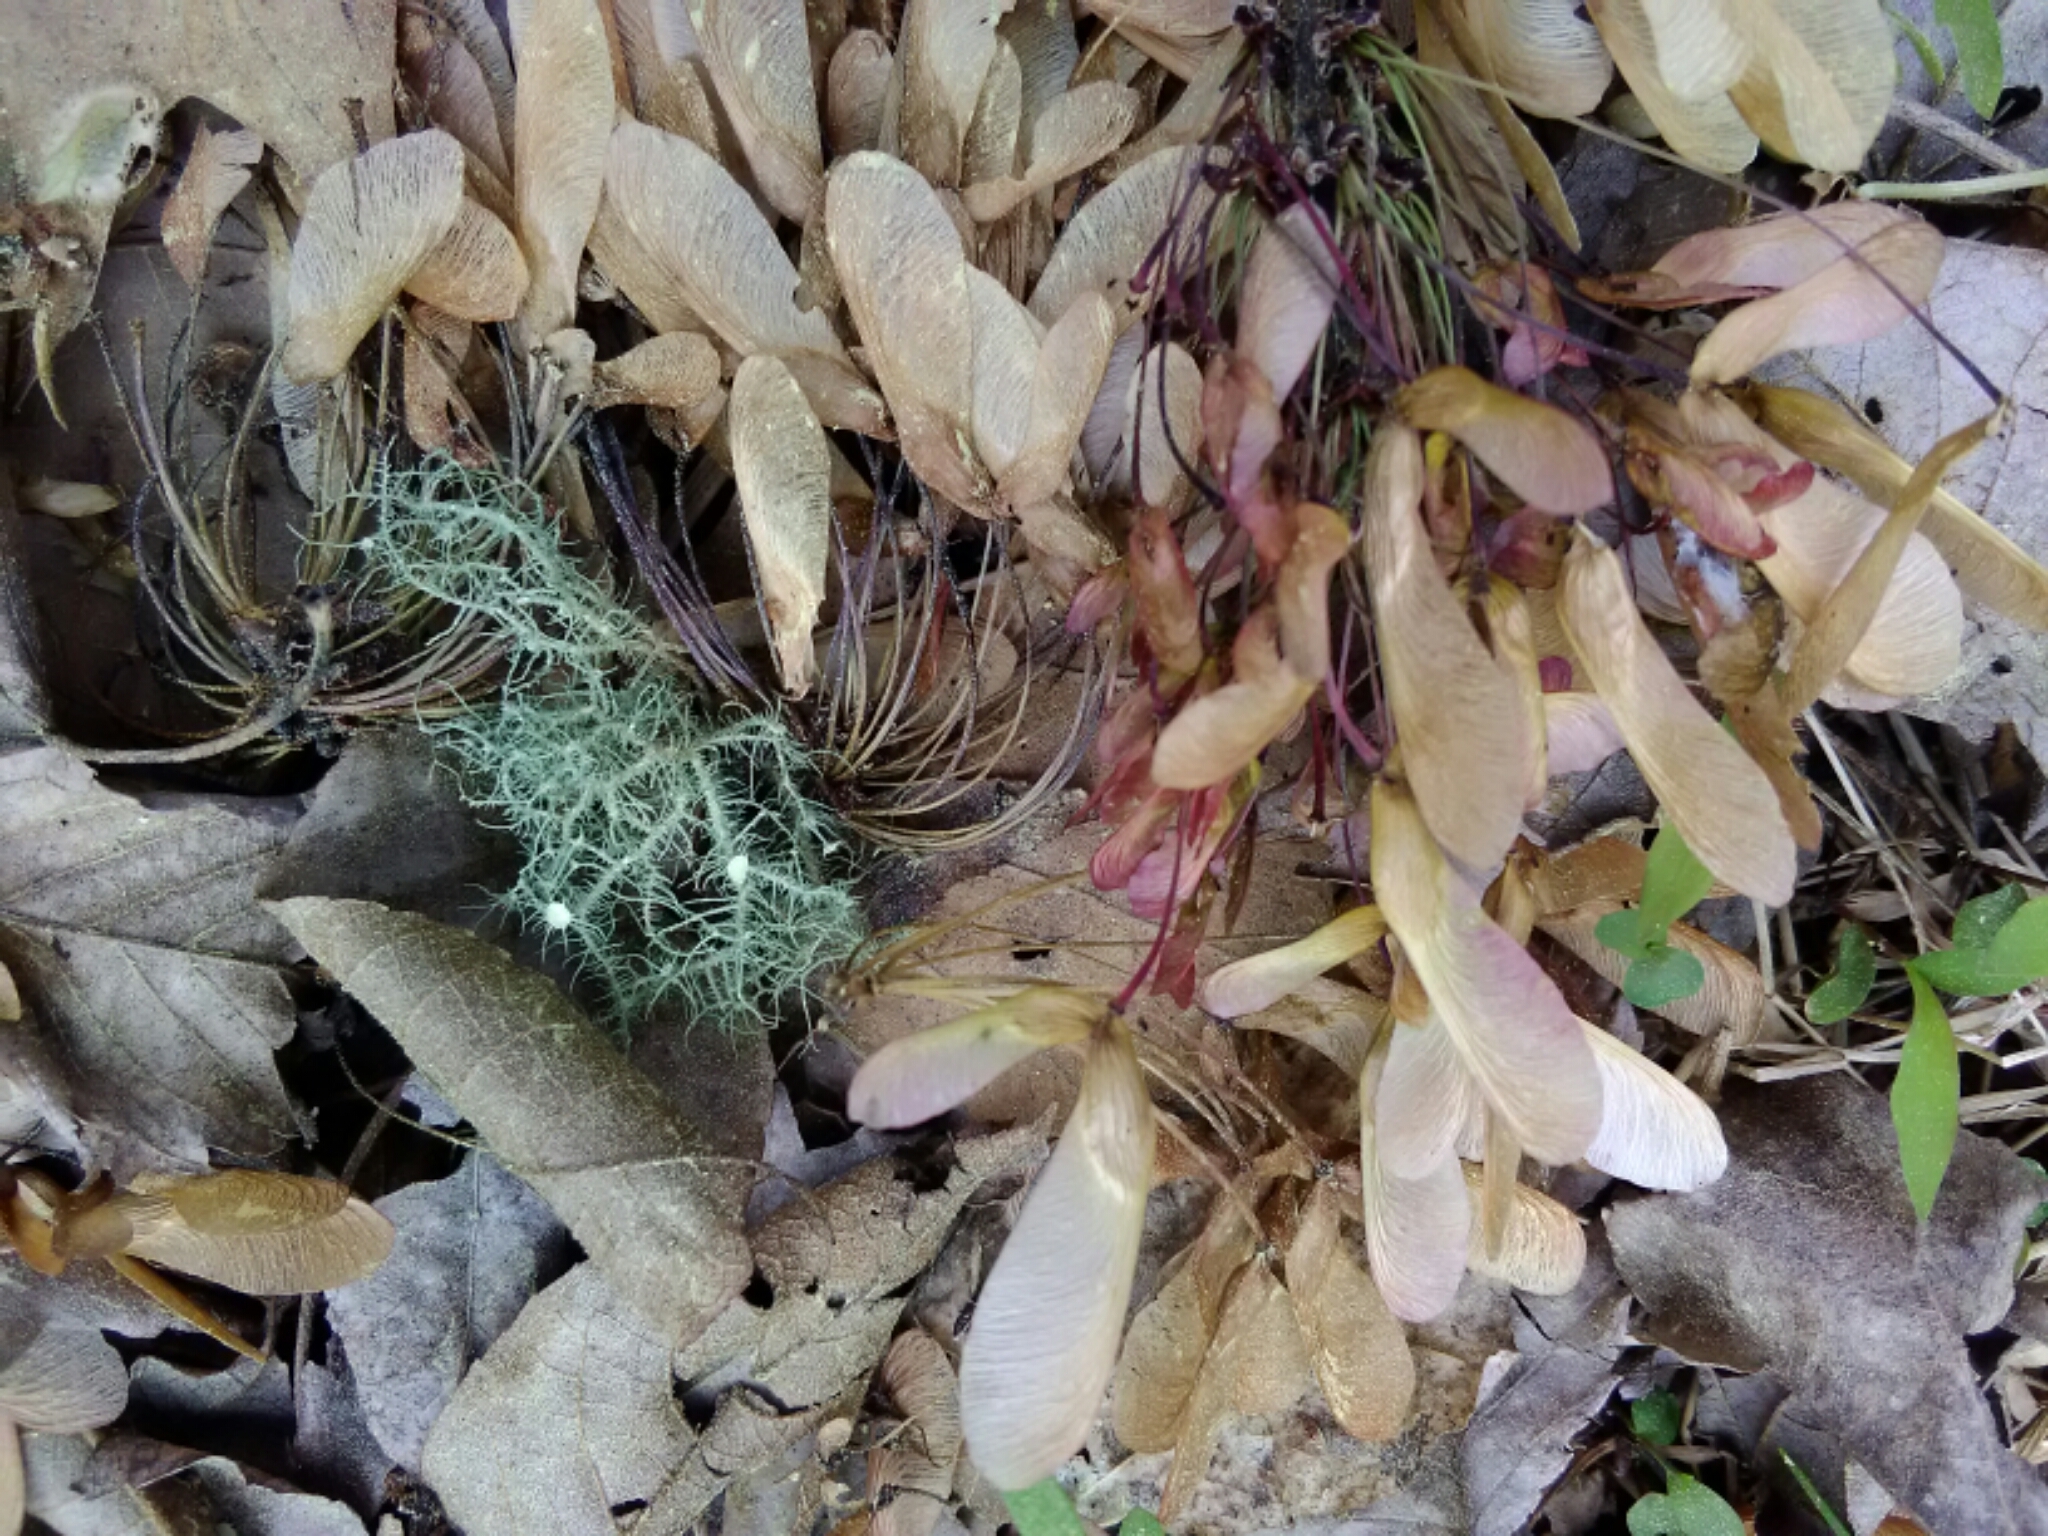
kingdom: Fungi
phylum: Ascomycota
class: Lecanoromycetes
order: Lecanorales
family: Parmeliaceae
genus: Usnea
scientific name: Usnea strigosa
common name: Bushy beard lichen
